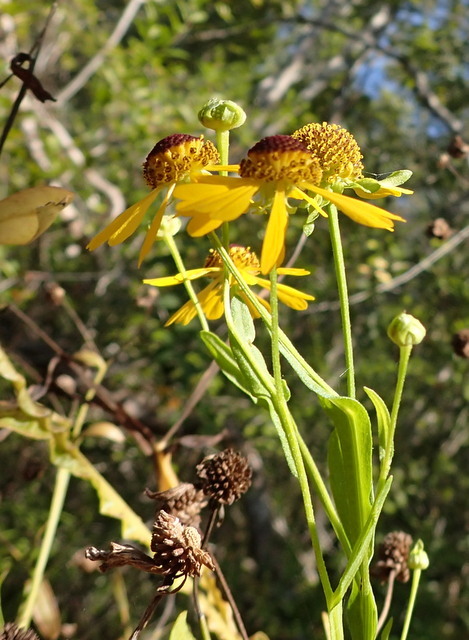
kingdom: Plantae
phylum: Tracheophyta
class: Magnoliopsida
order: Asterales
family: Asteraceae
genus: Helenium
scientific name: Helenium flexuosum
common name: Naked-flowered sneezeweed
